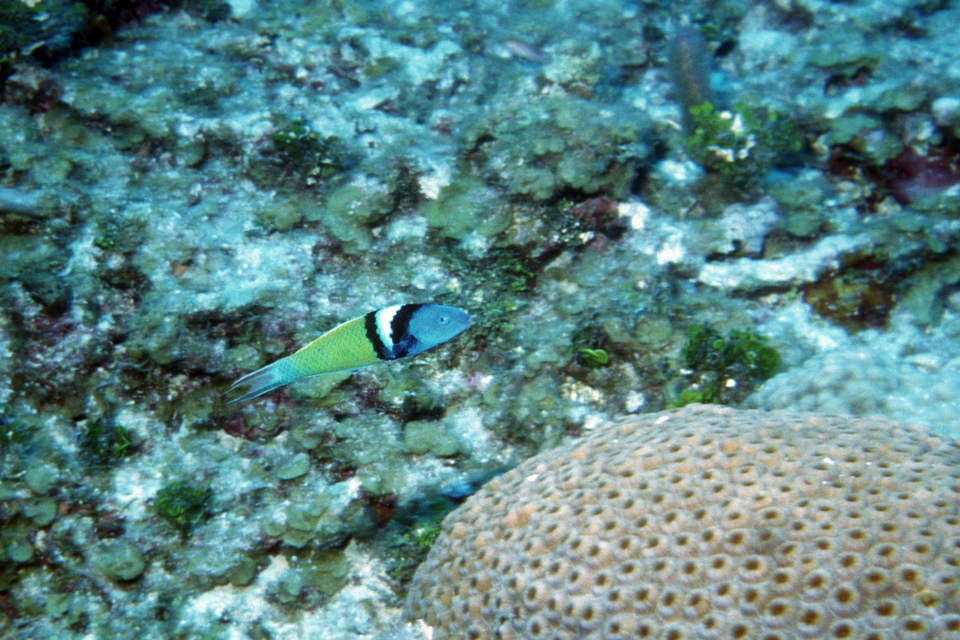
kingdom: Animalia
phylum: Chordata
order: Perciformes
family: Labridae
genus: Thalassoma
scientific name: Thalassoma bifasciatum
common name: Bluehead wrasse
